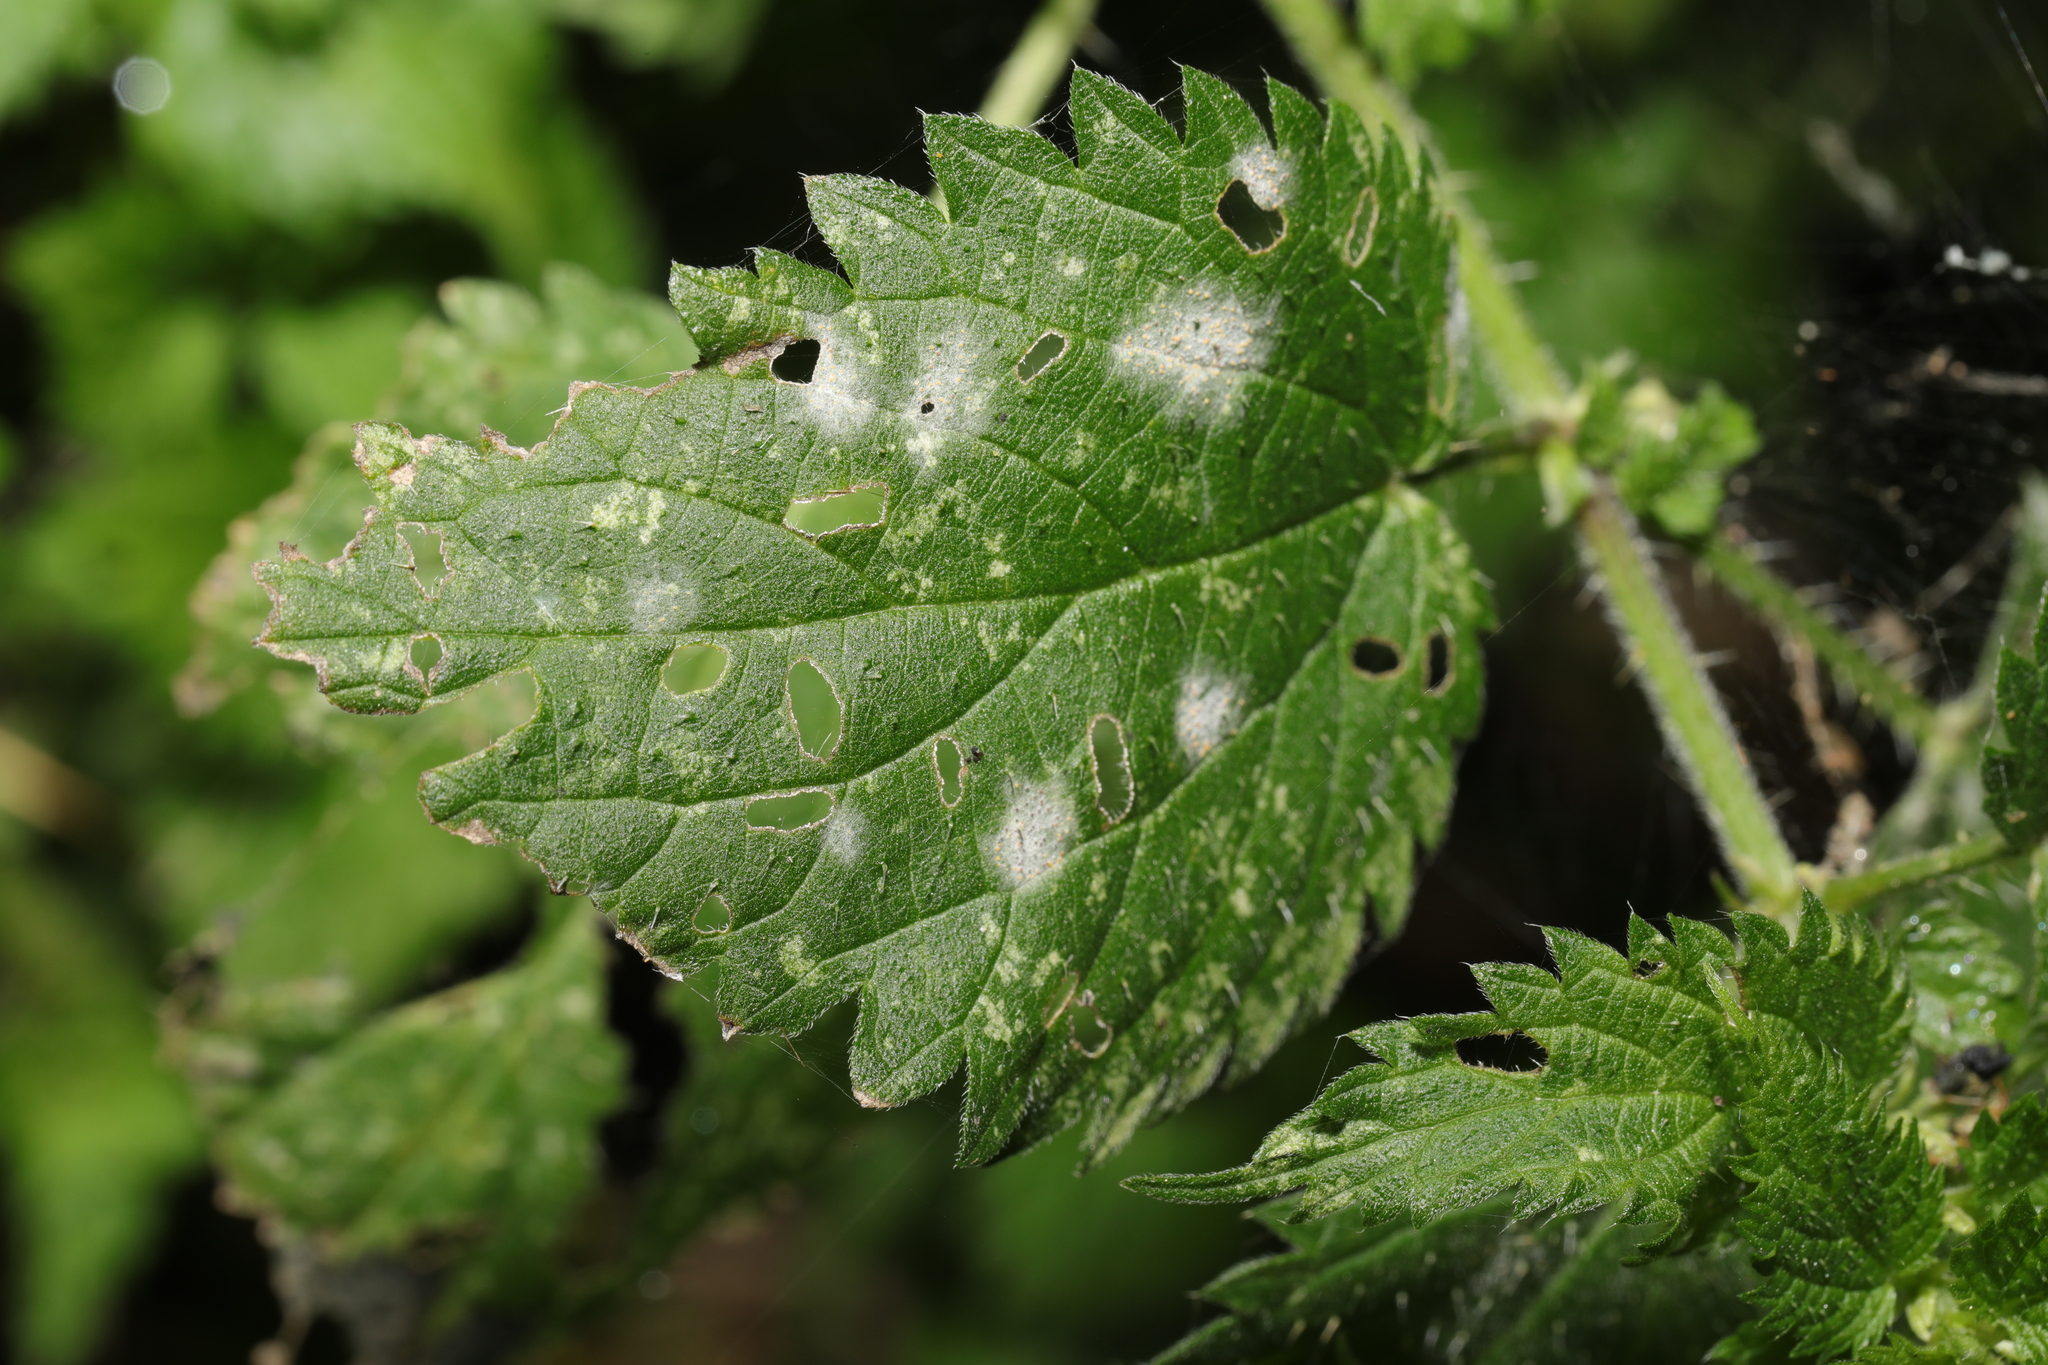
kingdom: Fungi
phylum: Ascomycota
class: Leotiomycetes
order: Helotiales
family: Erysiphaceae
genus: Erysiphe
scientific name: Erysiphe urticae
